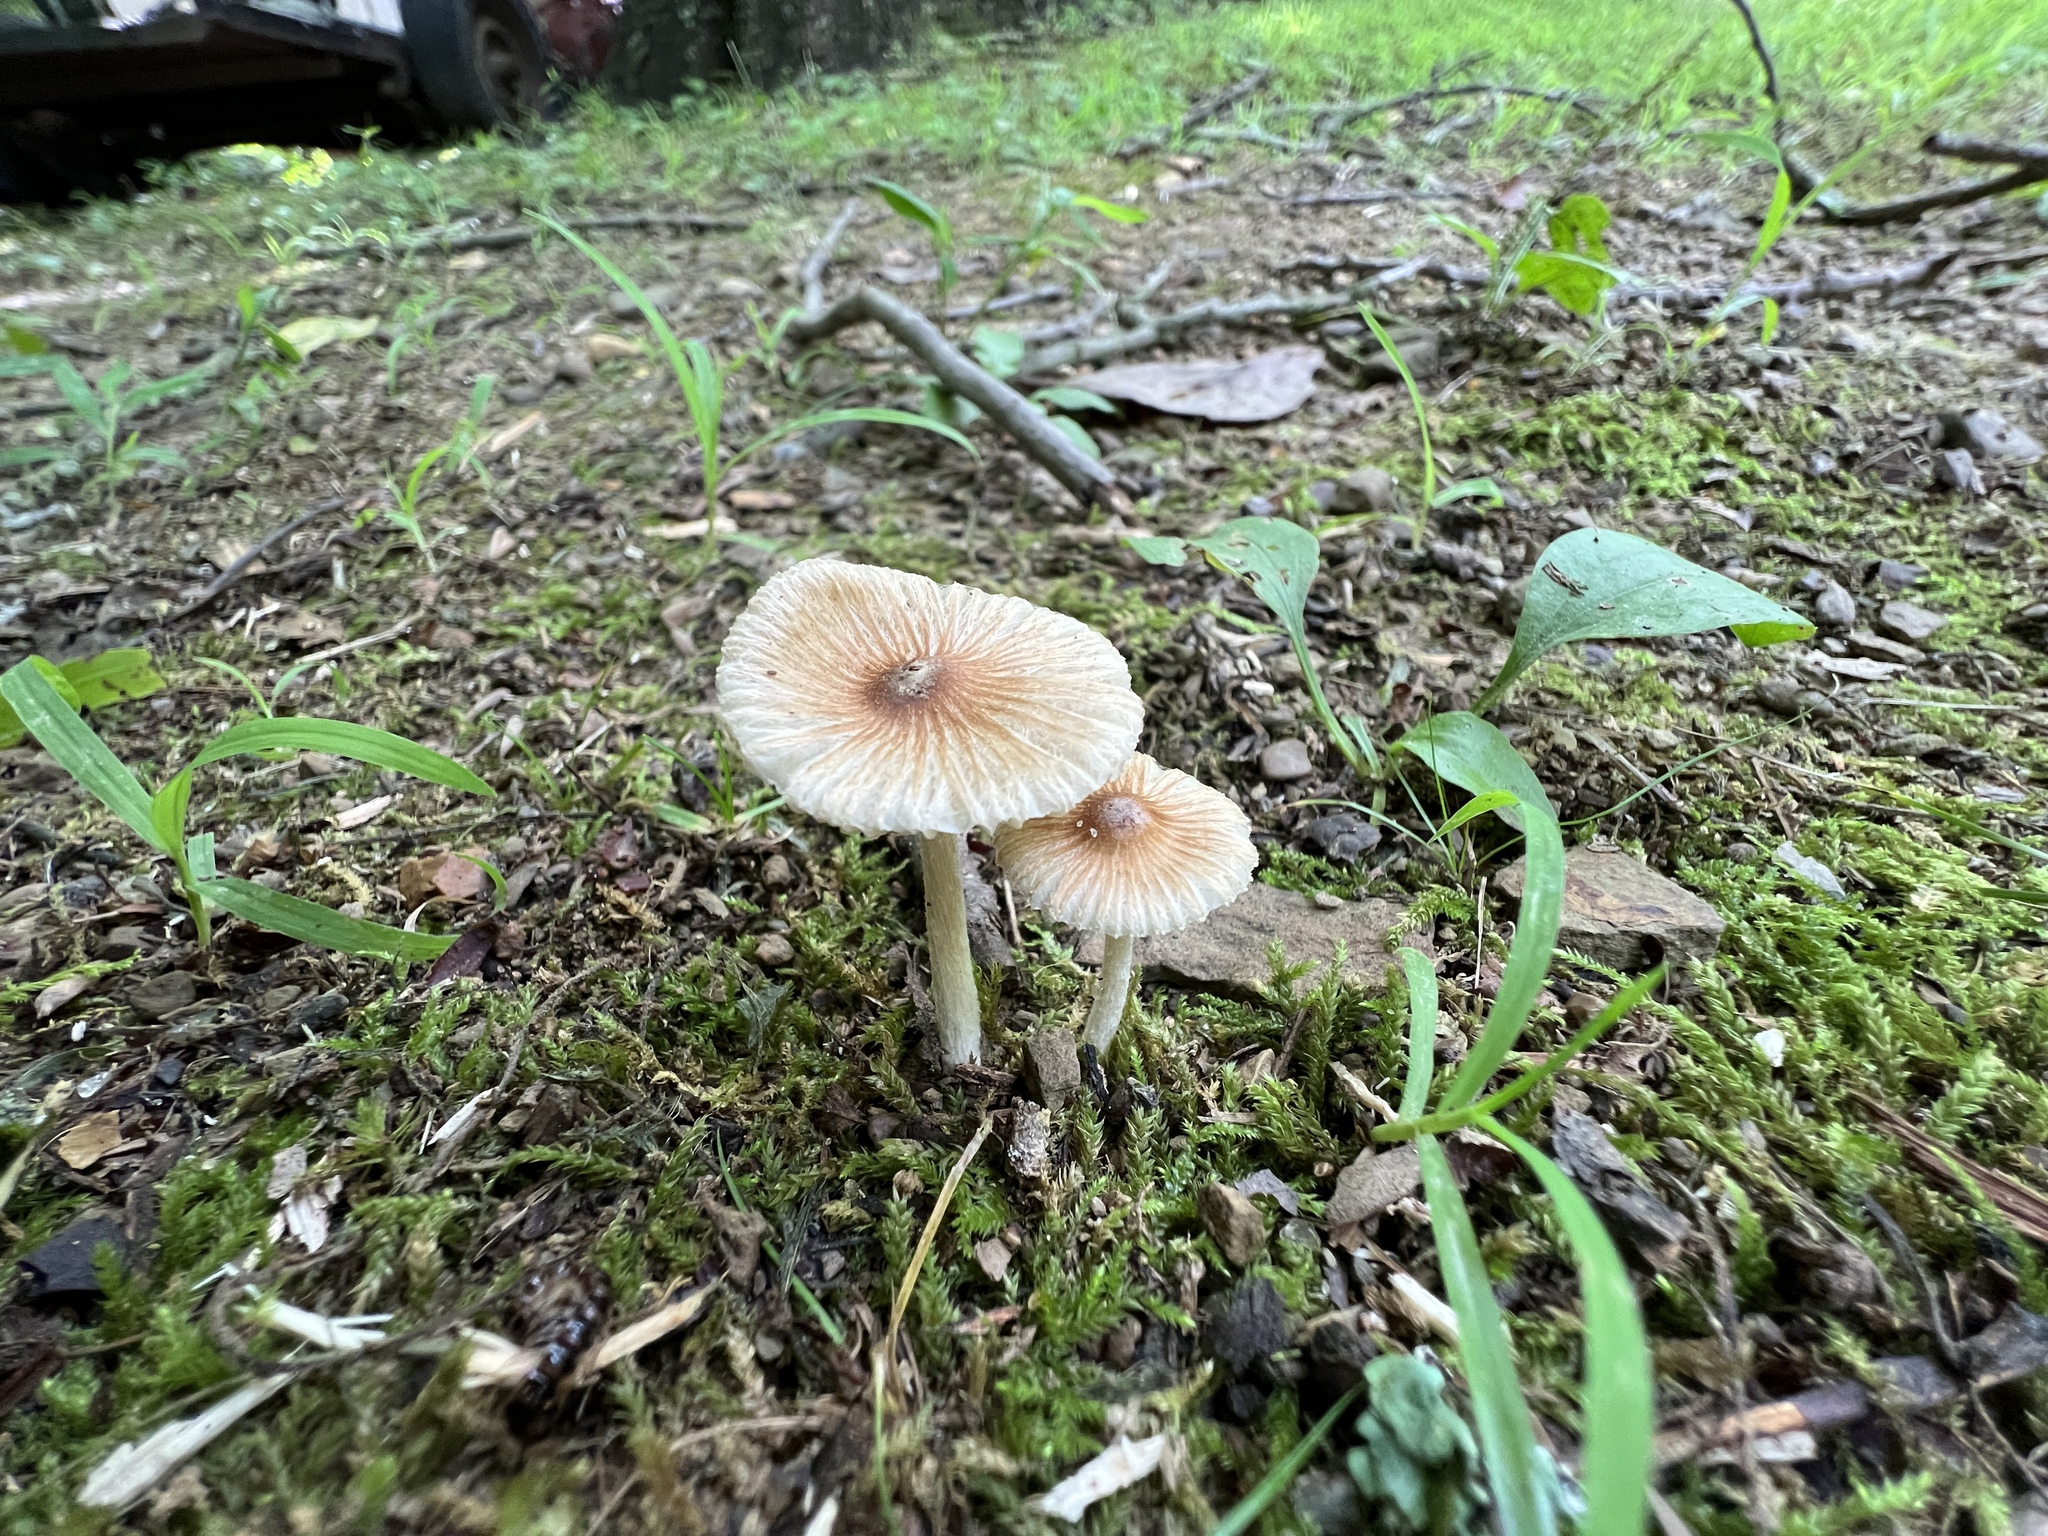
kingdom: Fungi
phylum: Basidiomycota
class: Agaricomycetes
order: Agaricales
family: Inocybaceae
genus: Pseudosperma
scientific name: Pseudosperma friabile
